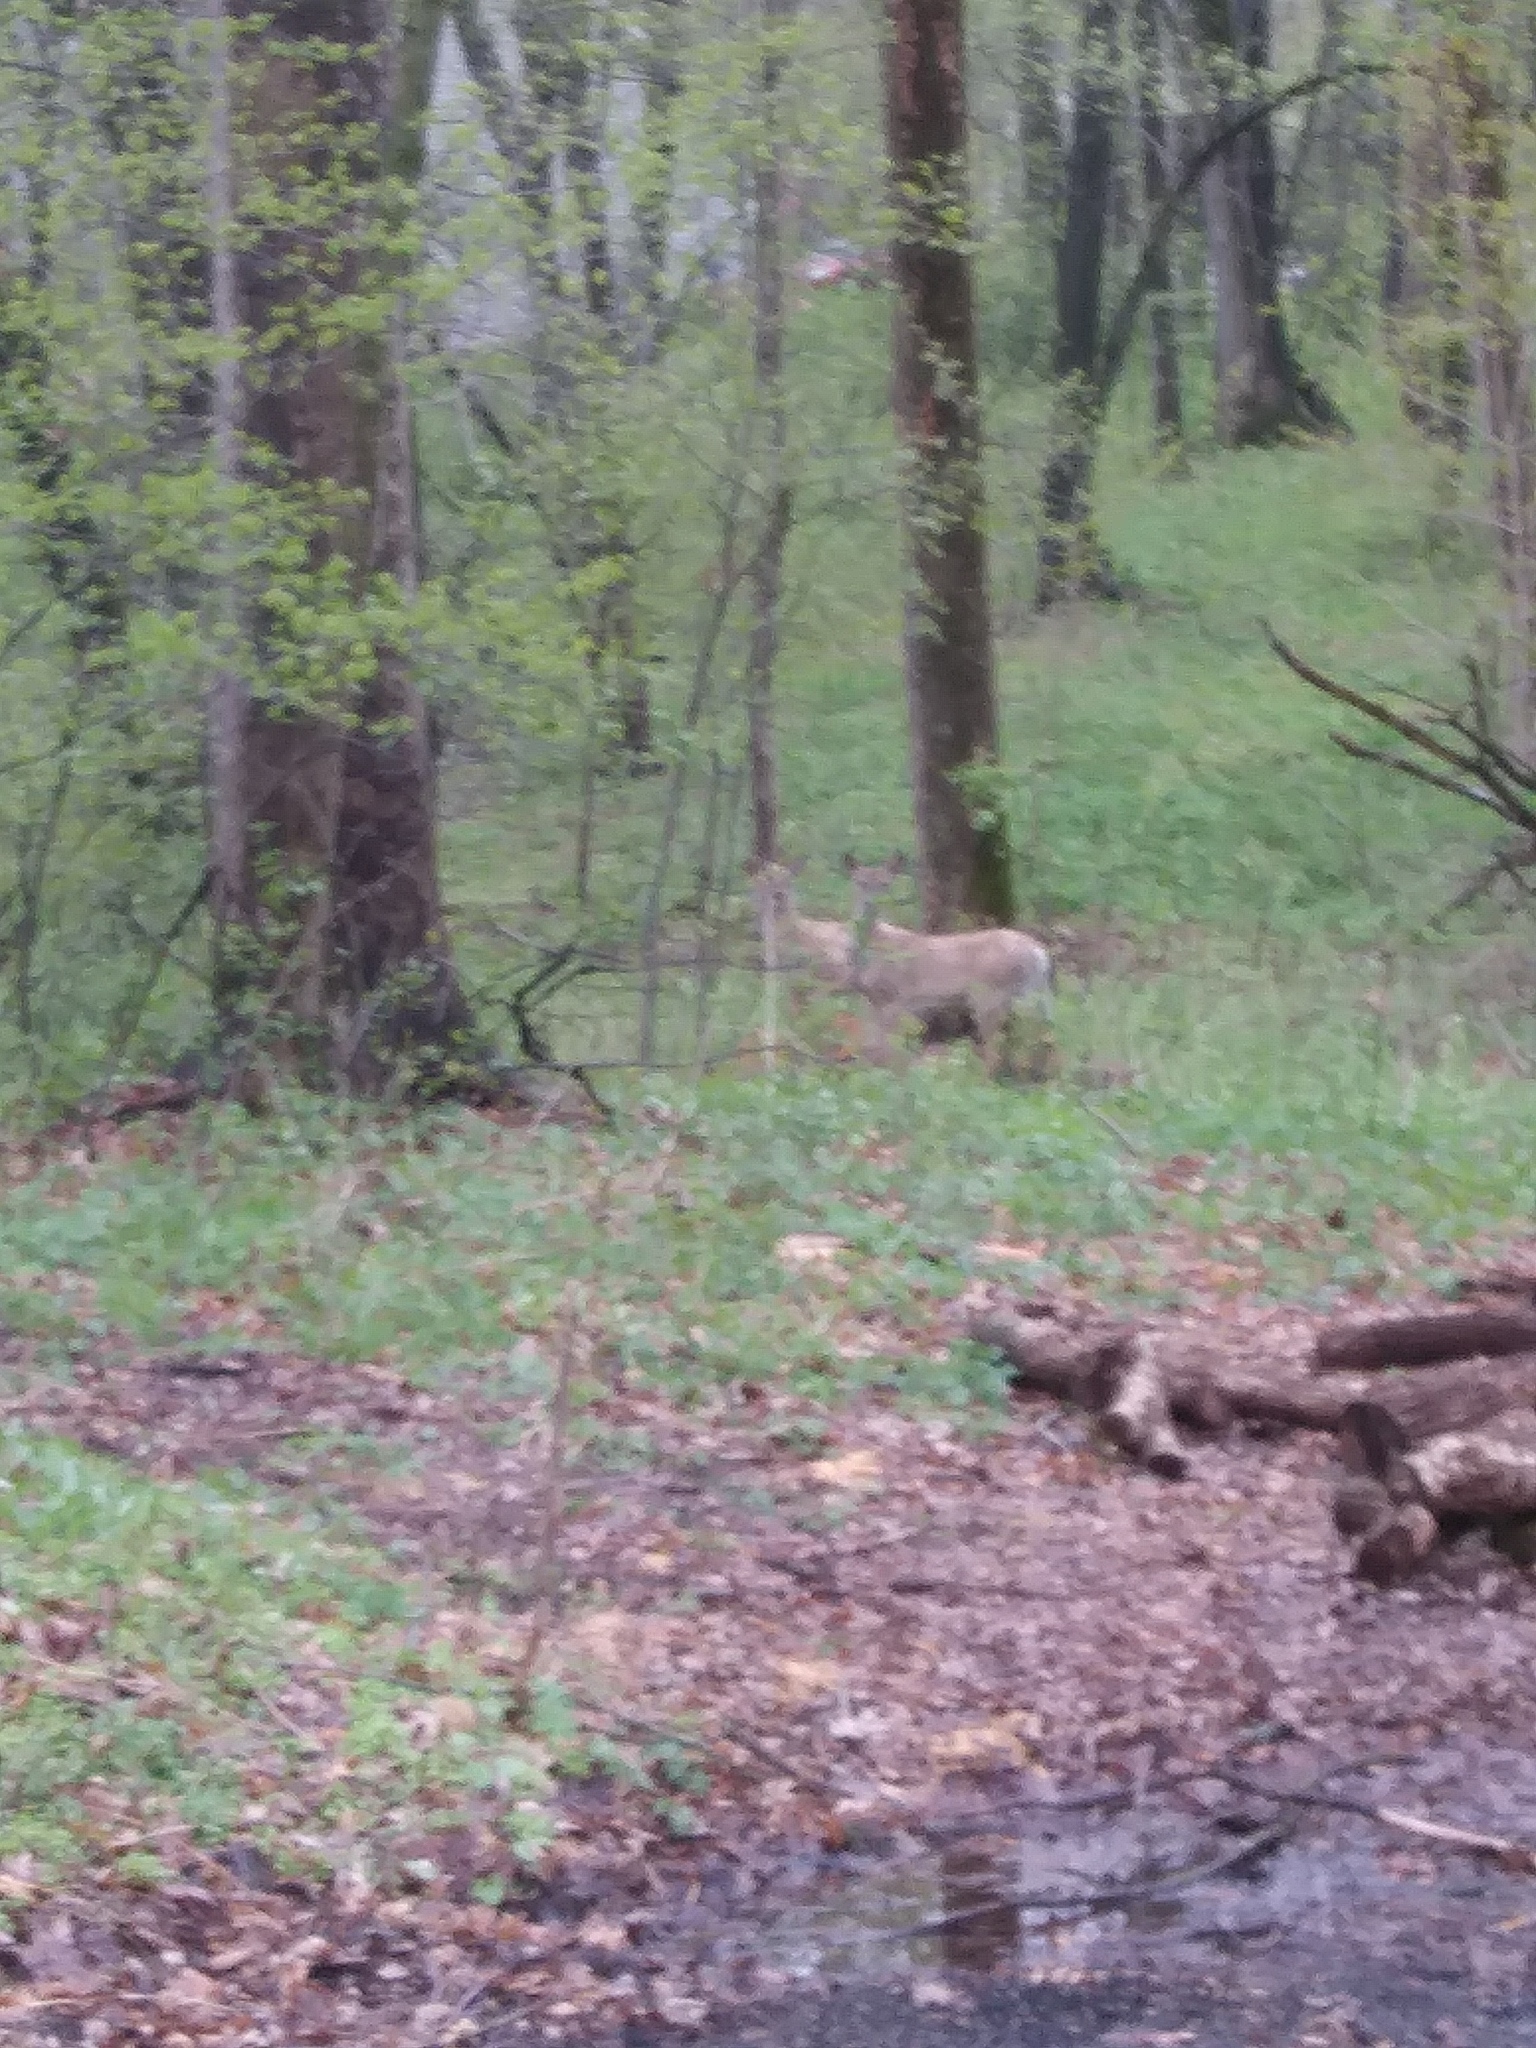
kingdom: Animalia
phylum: Chordata
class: Mammalia
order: Artiodactyla
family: Cervidae
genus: Odocoileus
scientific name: Odocoileus virginianus
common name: White-tailed deer
